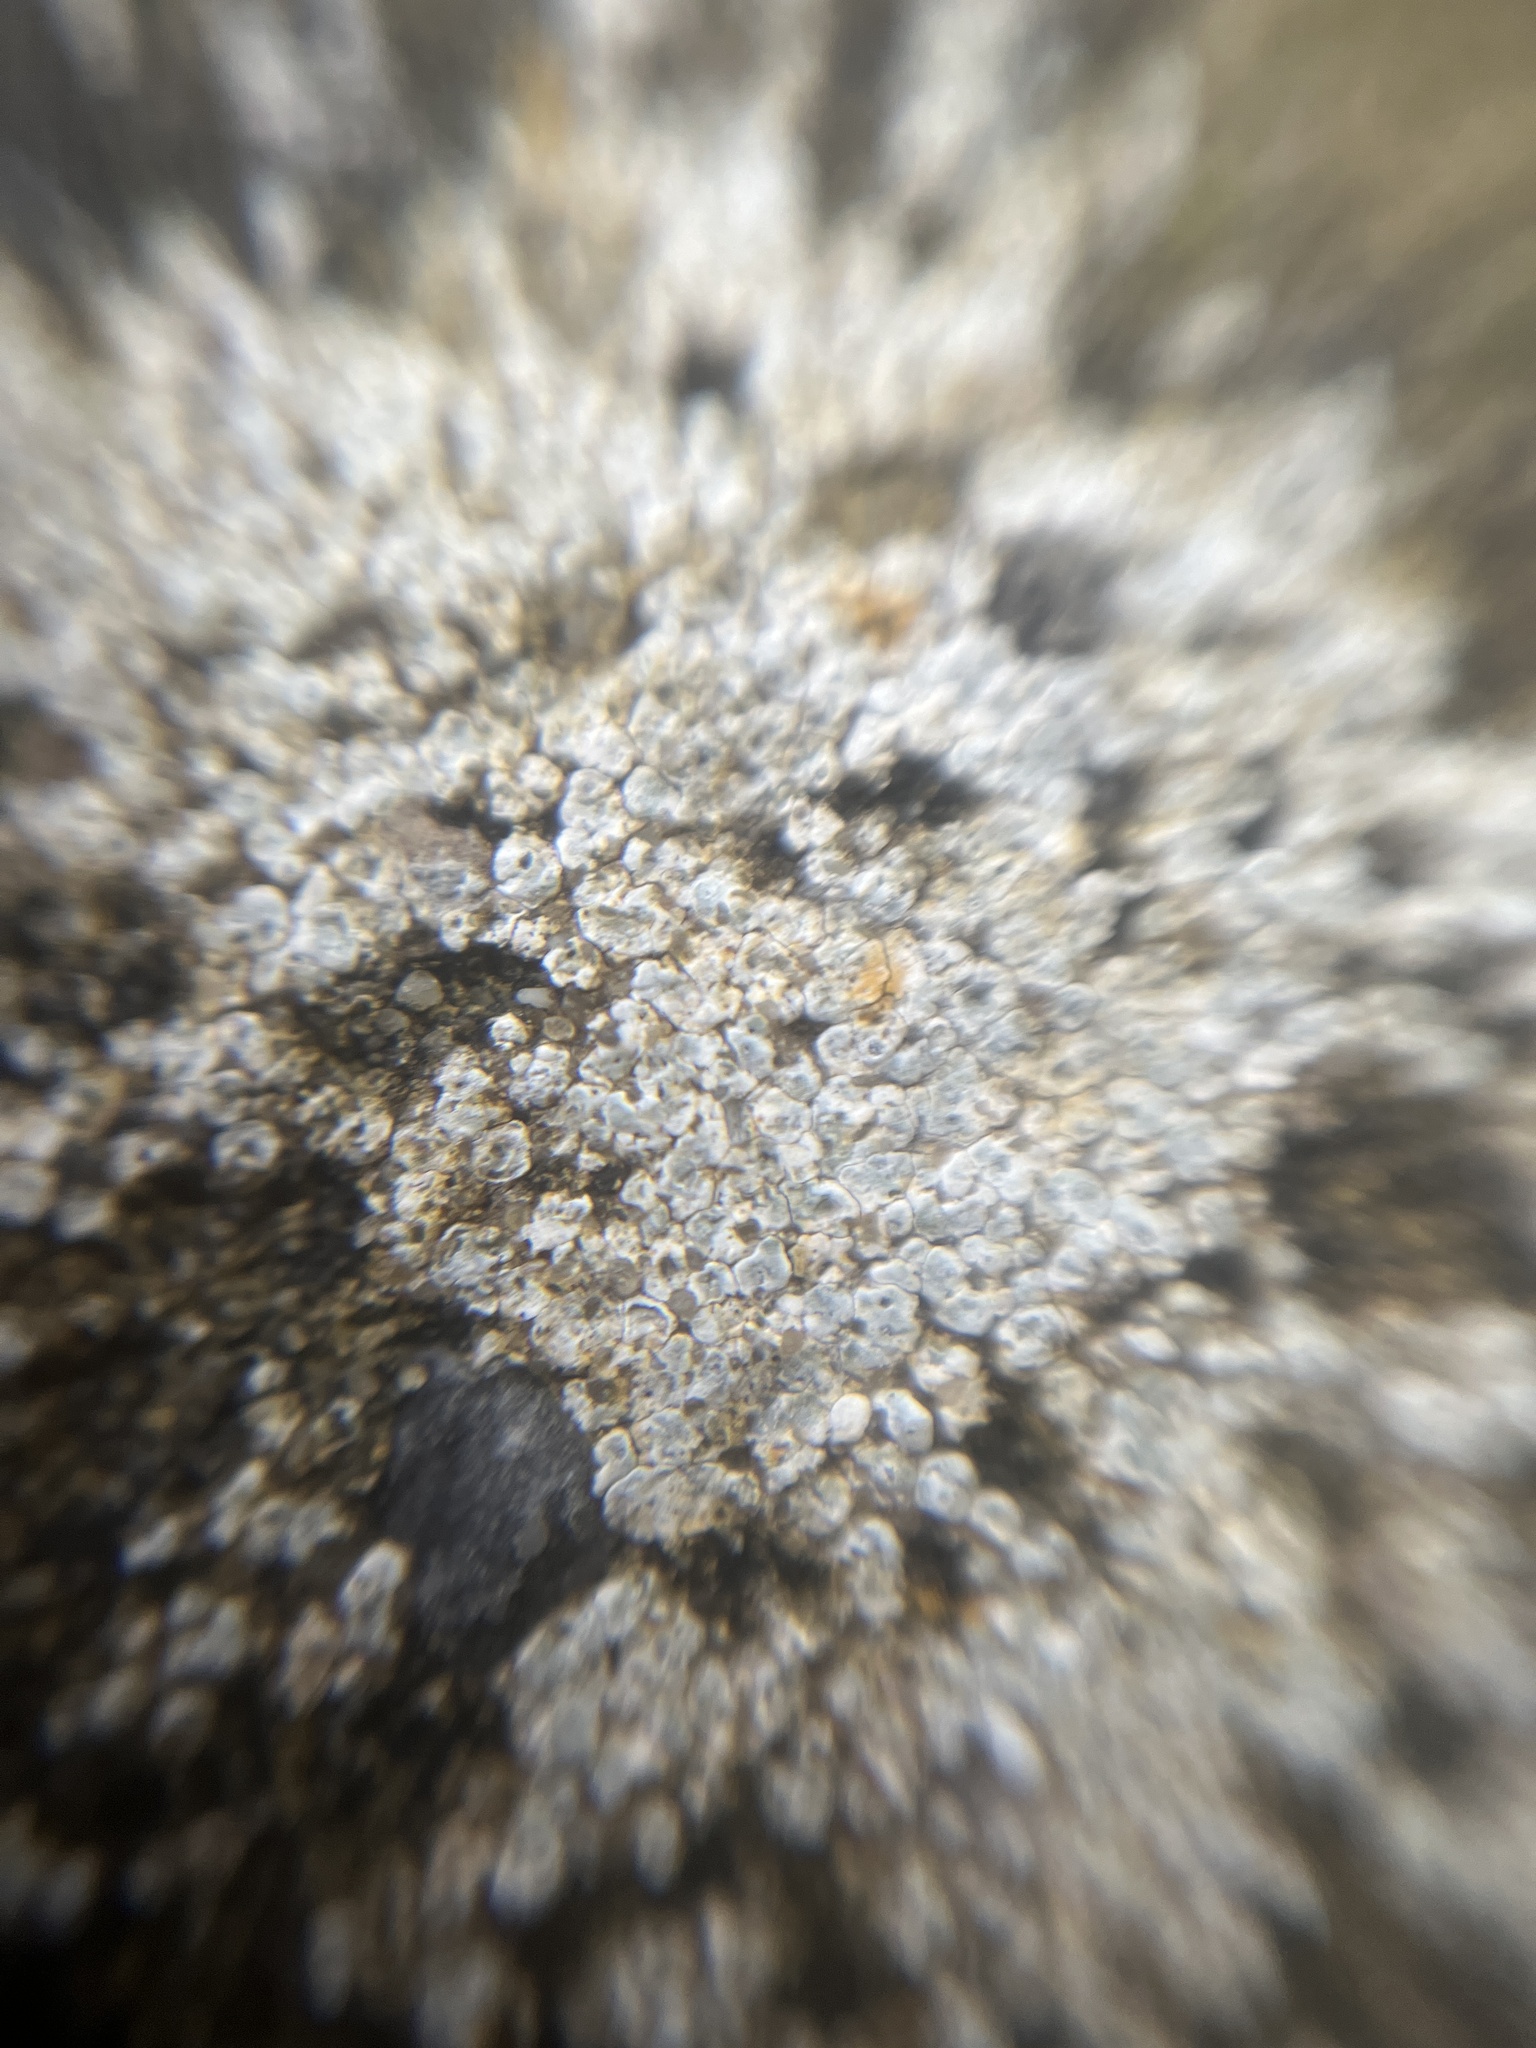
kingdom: Fungi
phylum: Ascomycota
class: Lecanoromycetes
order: Pertusariales
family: Megasporaceae
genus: Circinaria
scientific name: Circinaria contorta
